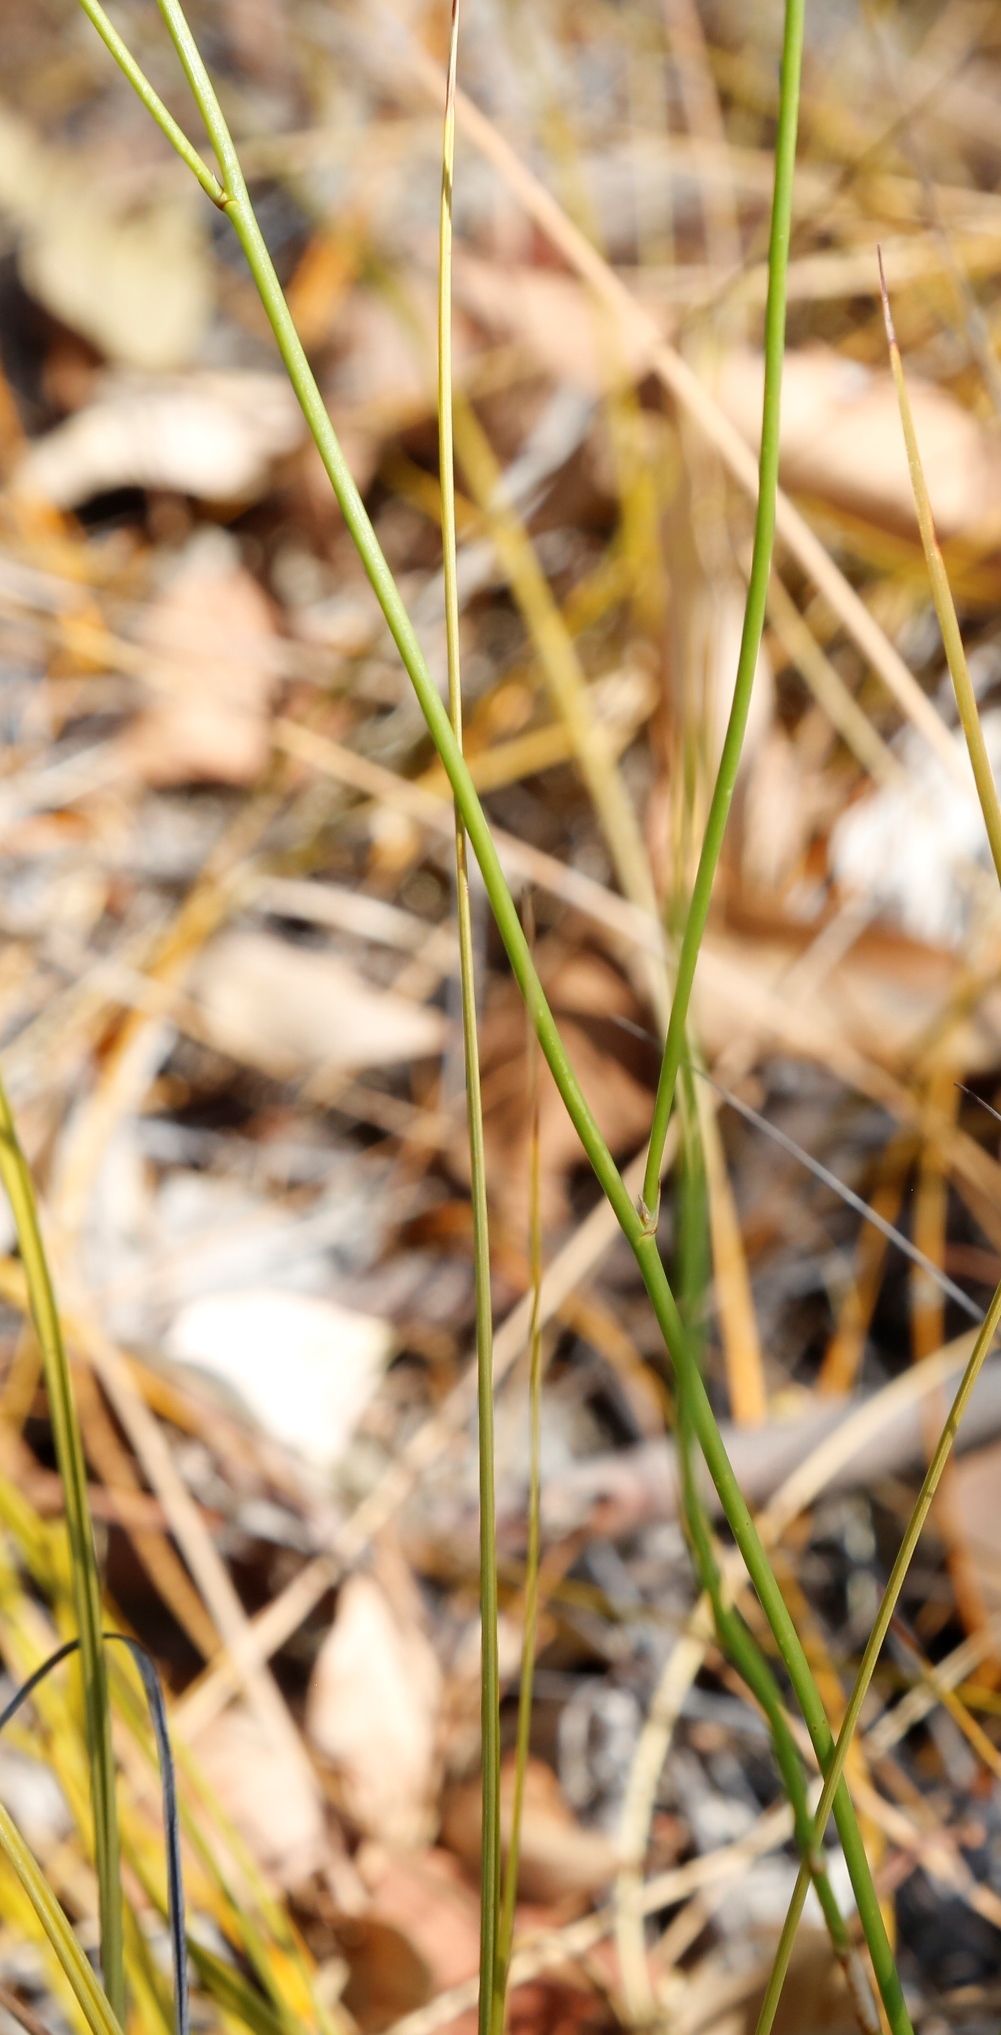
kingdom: Plantae
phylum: Tracheophyta
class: Liliopsida
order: Asparagales
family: Asparagaceae
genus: Thysanotus
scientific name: Thysanotus sparteus
